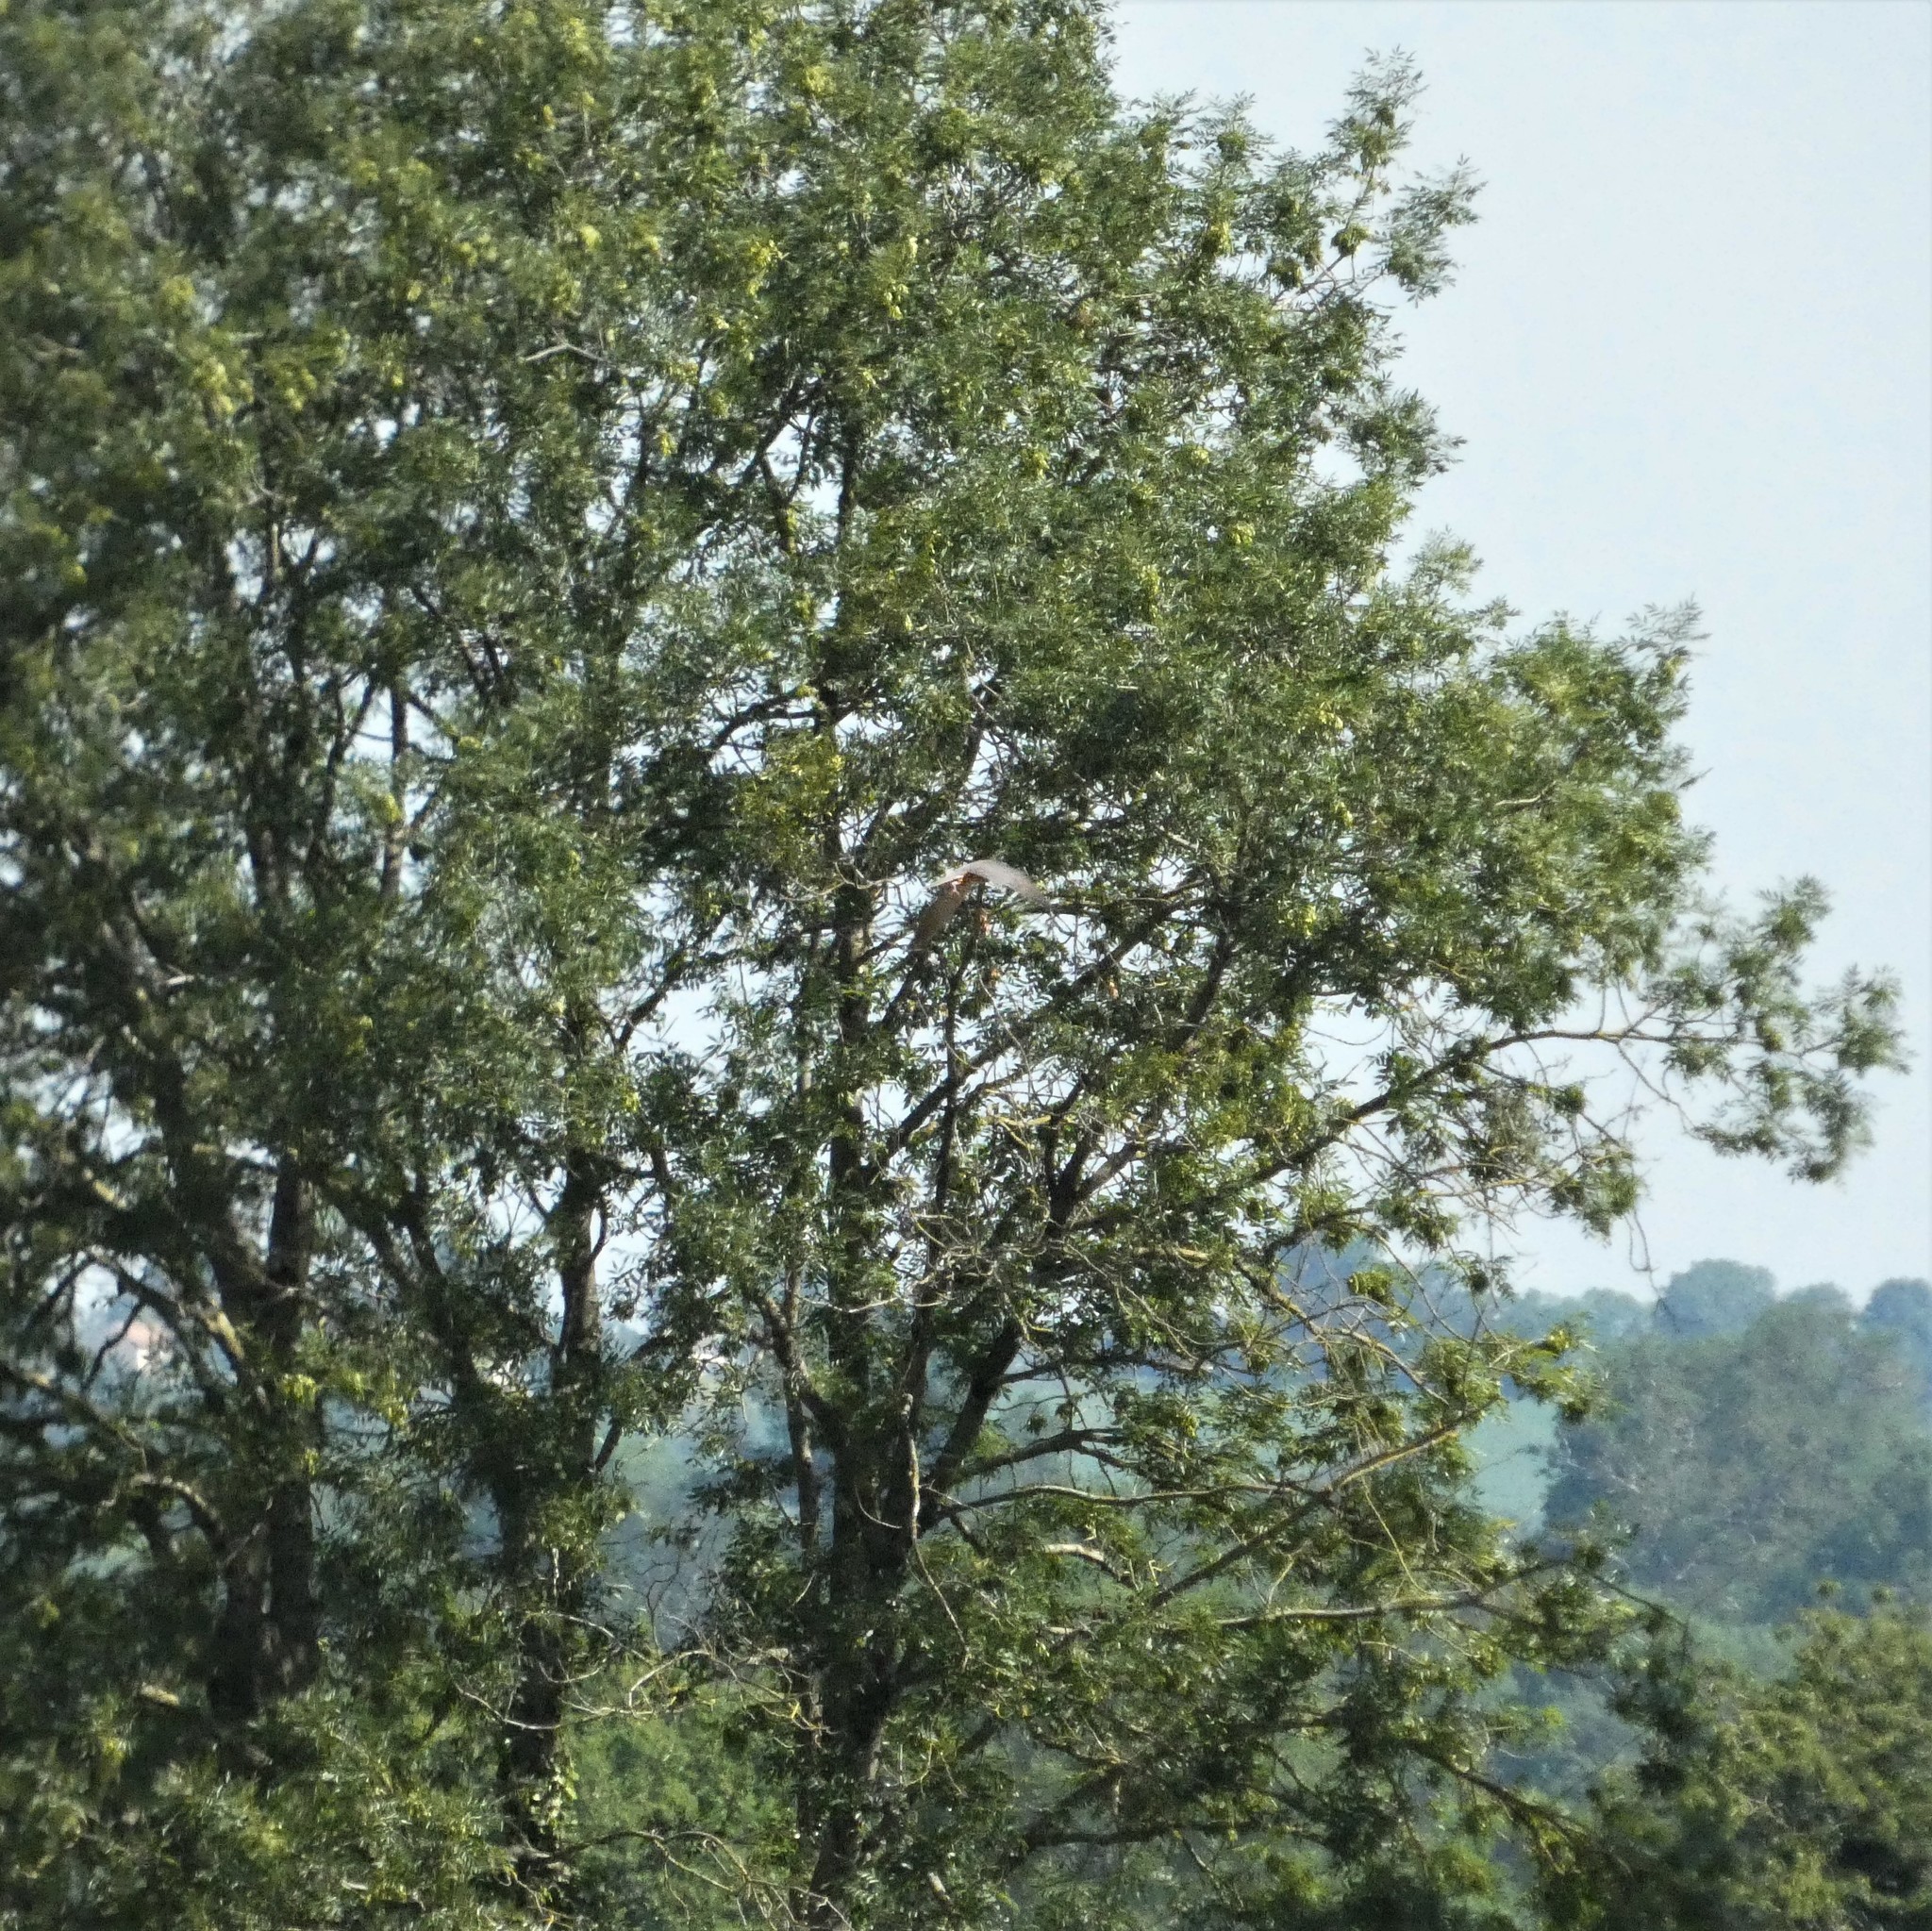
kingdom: Animalia
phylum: Chordata
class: Aves
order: Falconiformes
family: Falconidae
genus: Falco
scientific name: Falco subbuteo
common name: Eurasian hobby
